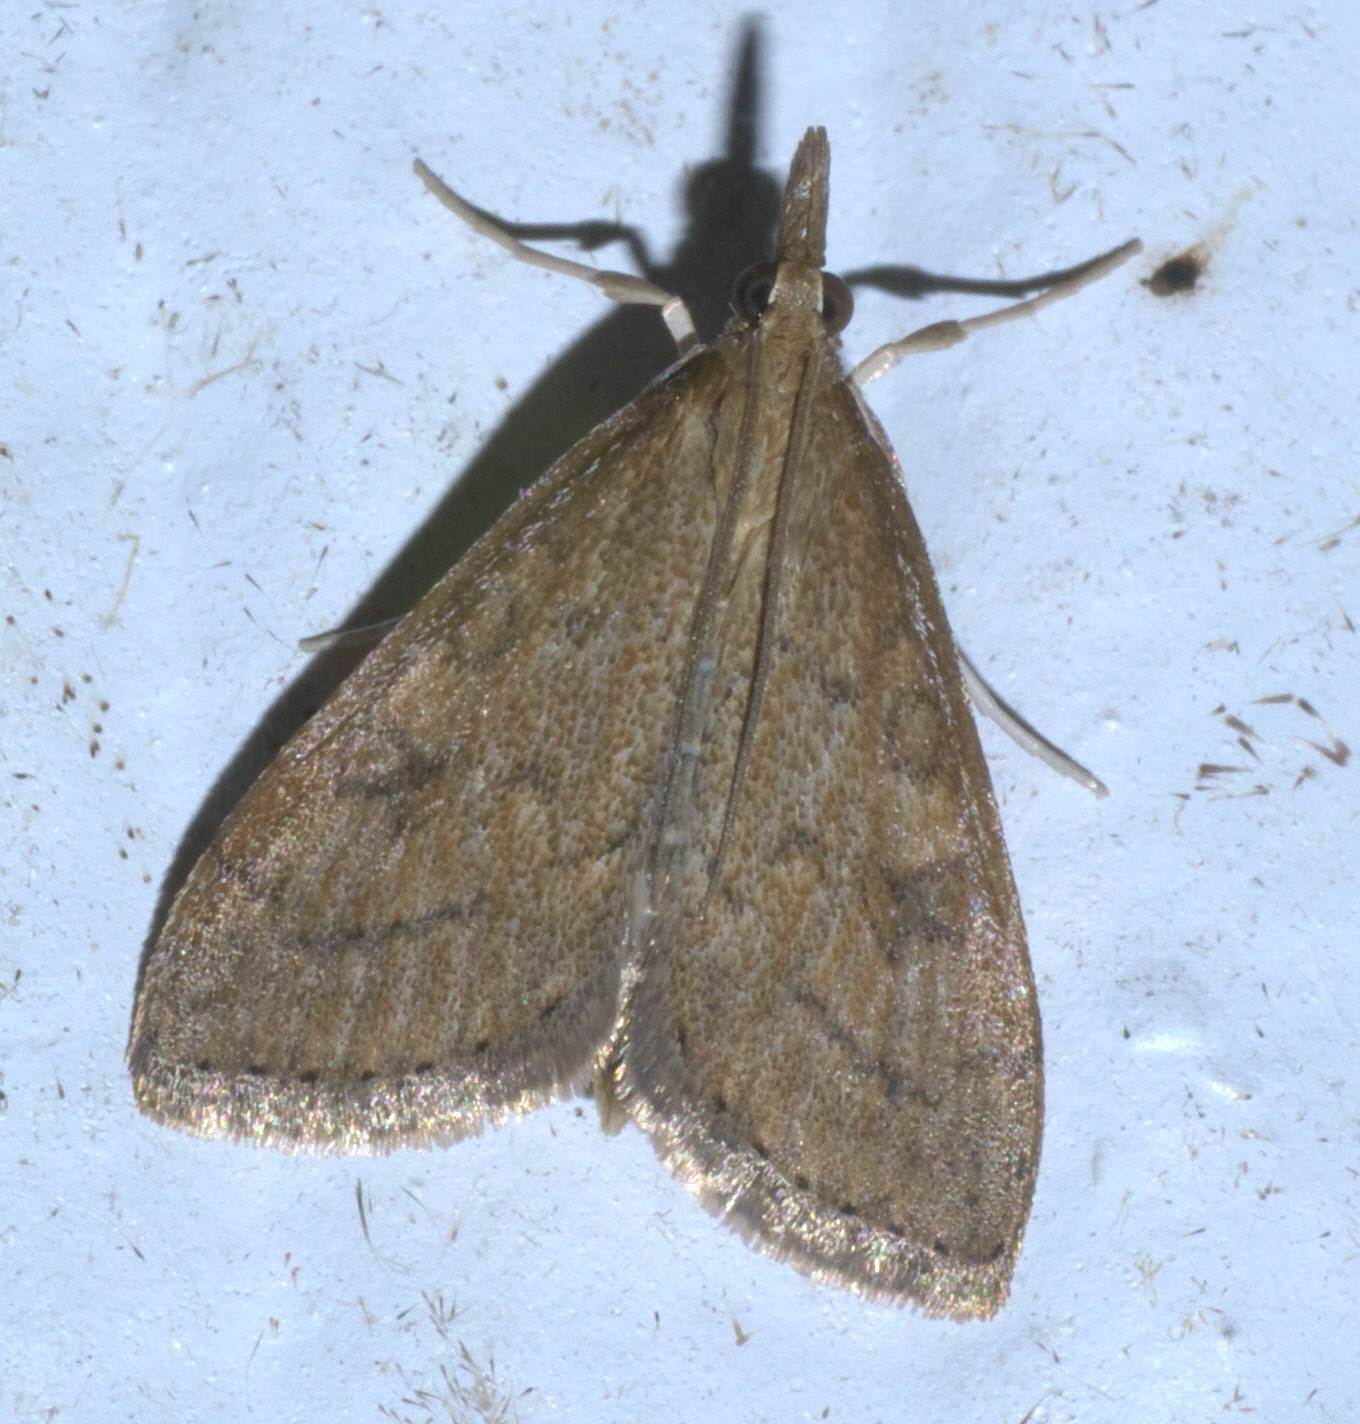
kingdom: Animalia
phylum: Arthropoda
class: Insecta
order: Lepidoptera
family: Crambidae
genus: Udea
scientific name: Udea rubigalis
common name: Celery leaftier moth
